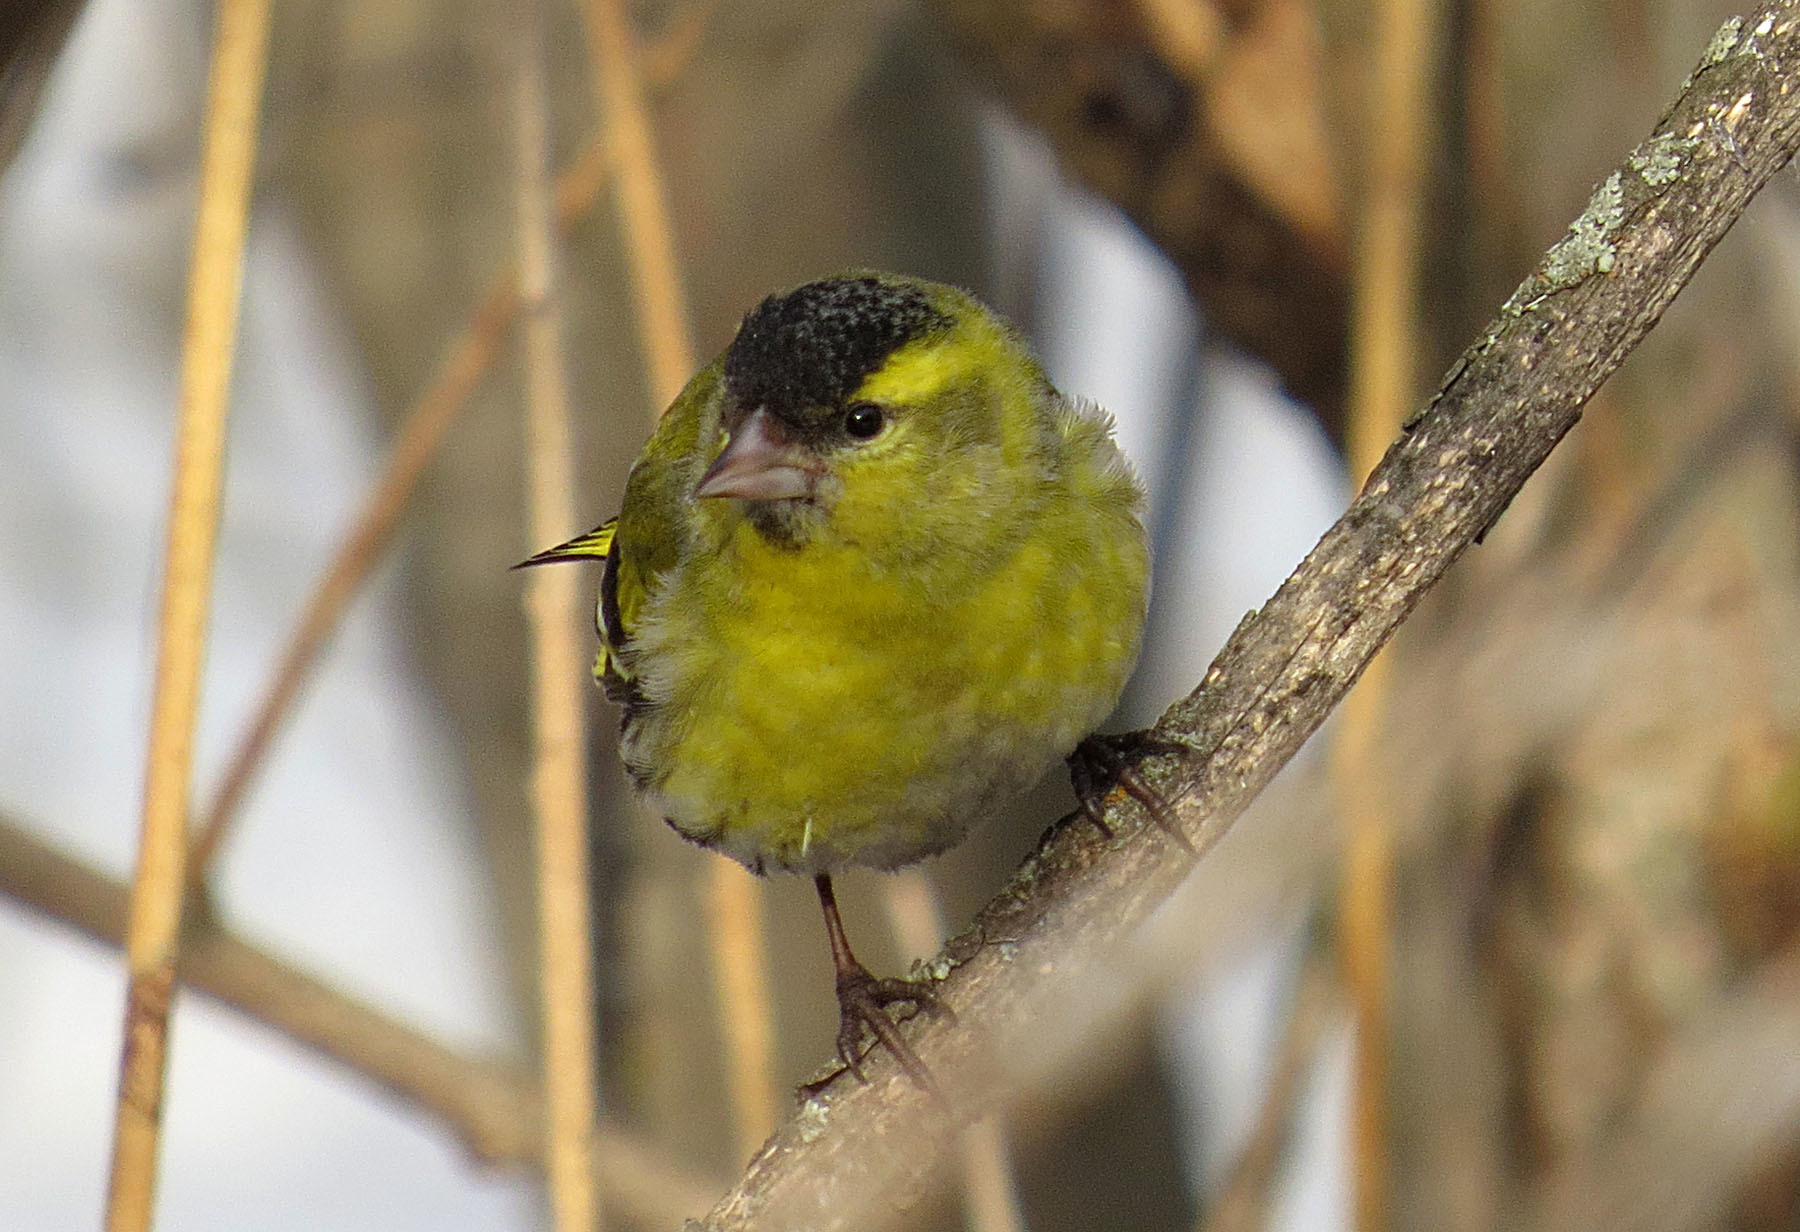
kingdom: Animalia
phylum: Chordata
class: Aves
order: Passeriformes
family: Fringillidae
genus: Spinus
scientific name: Spinus spinus
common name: Eurasian siskin
